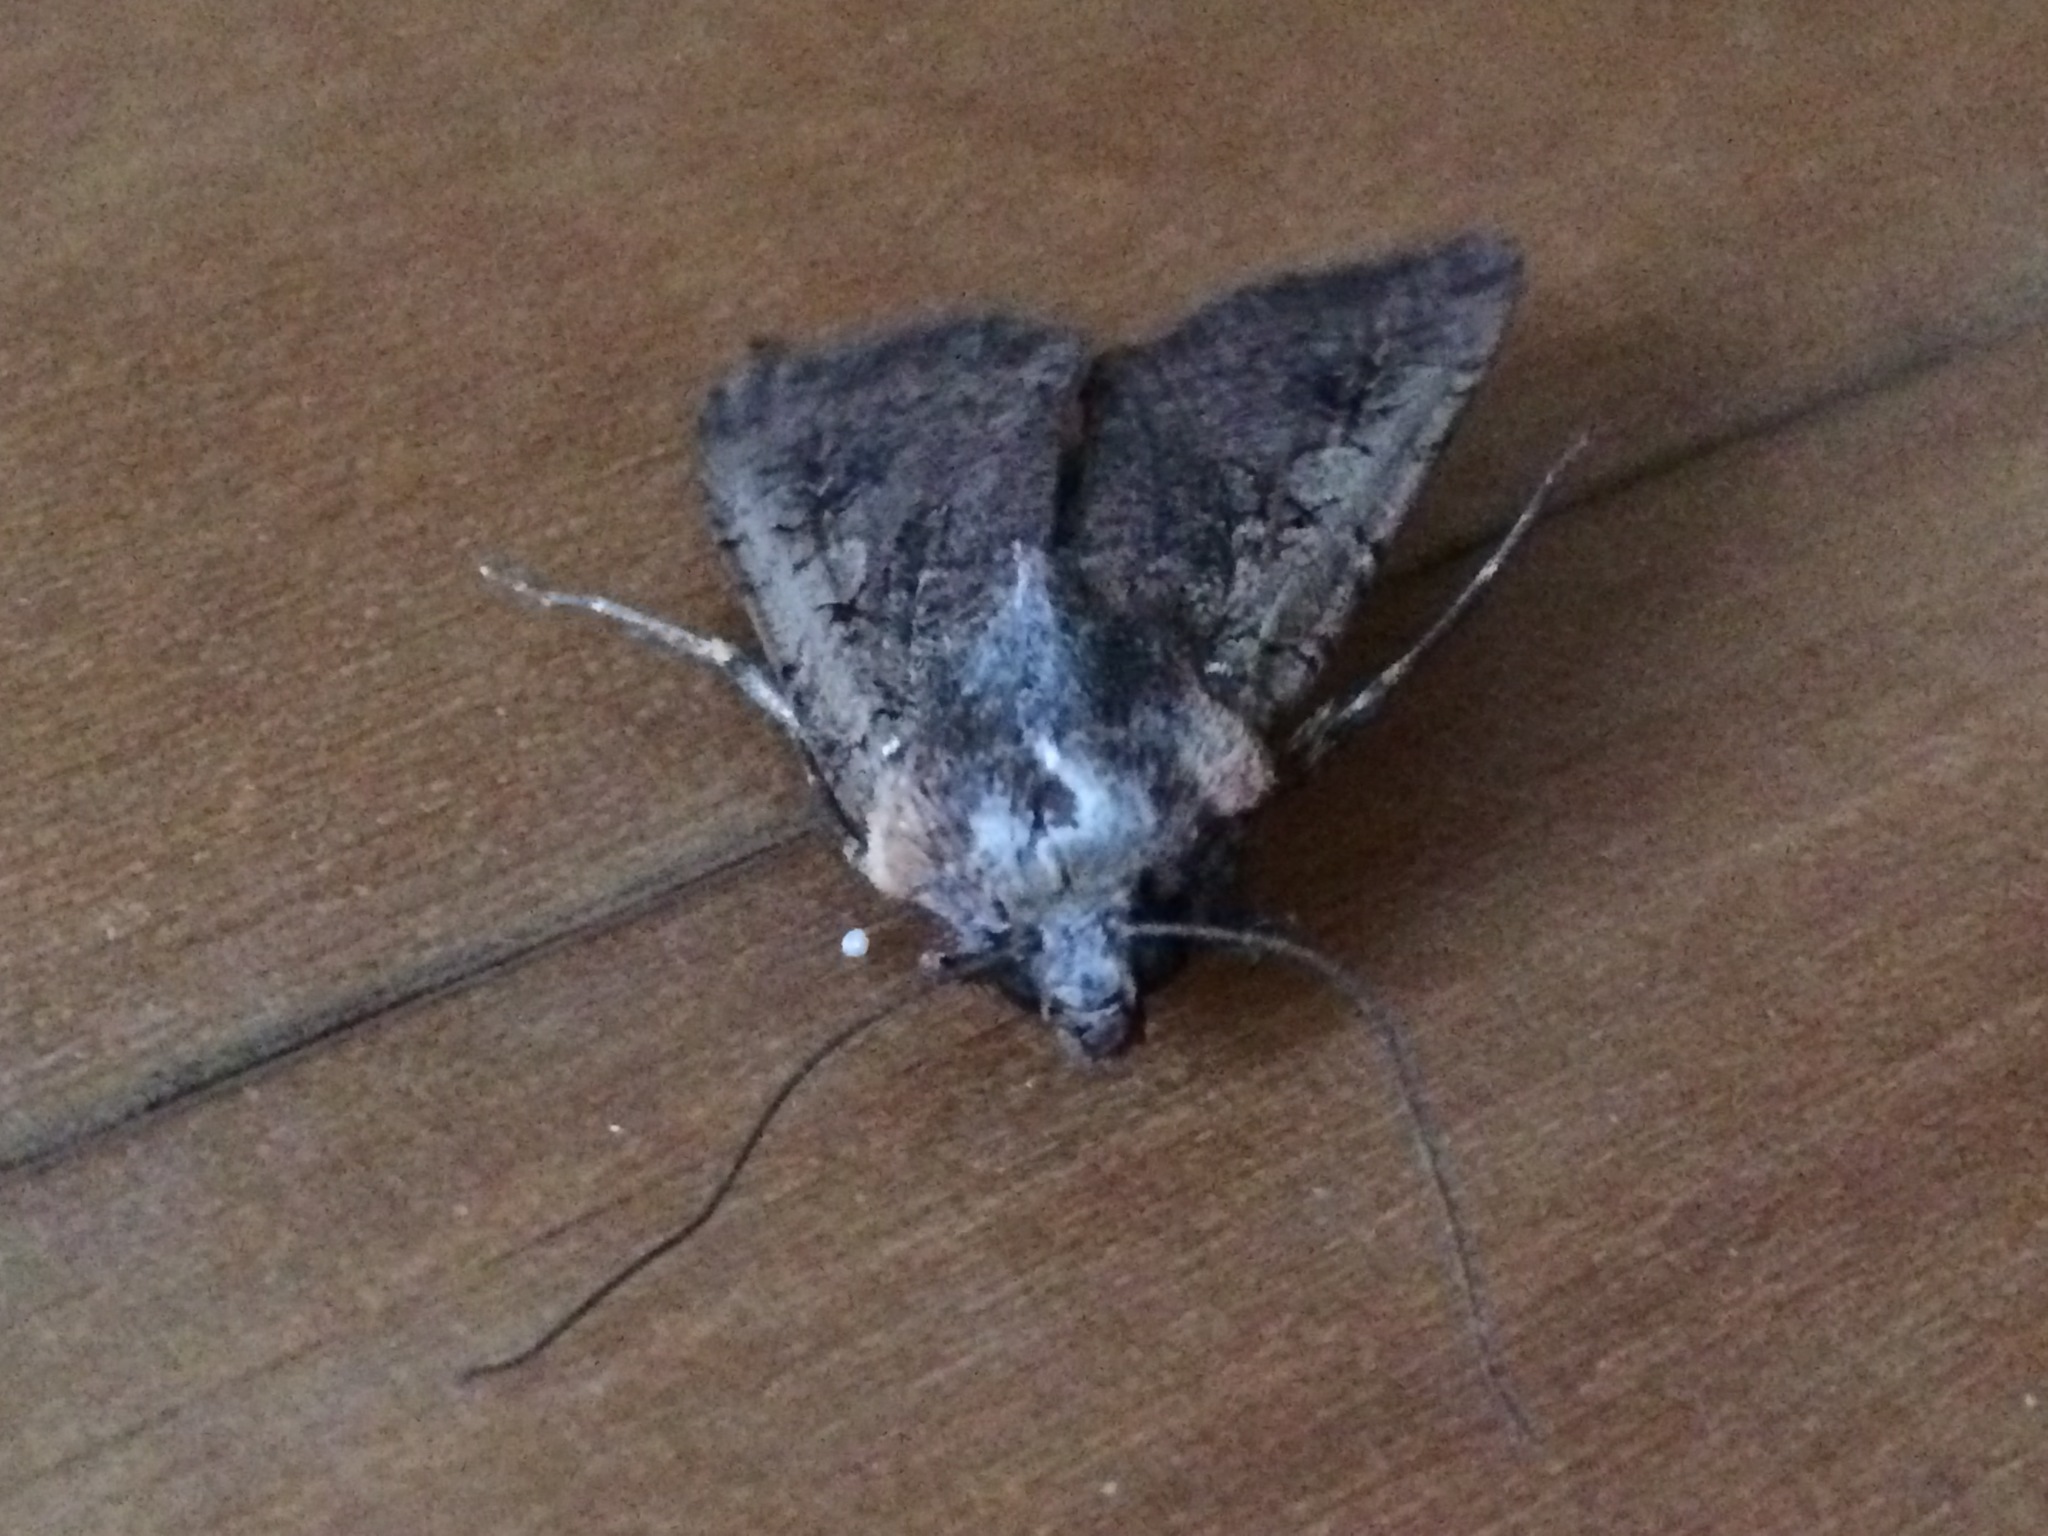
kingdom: Animalia
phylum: Arthropoda
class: Insecta
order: Lepidoptera
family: Noctuidae
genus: Peridroma
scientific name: Peridroma saucia
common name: Pearly underwing
